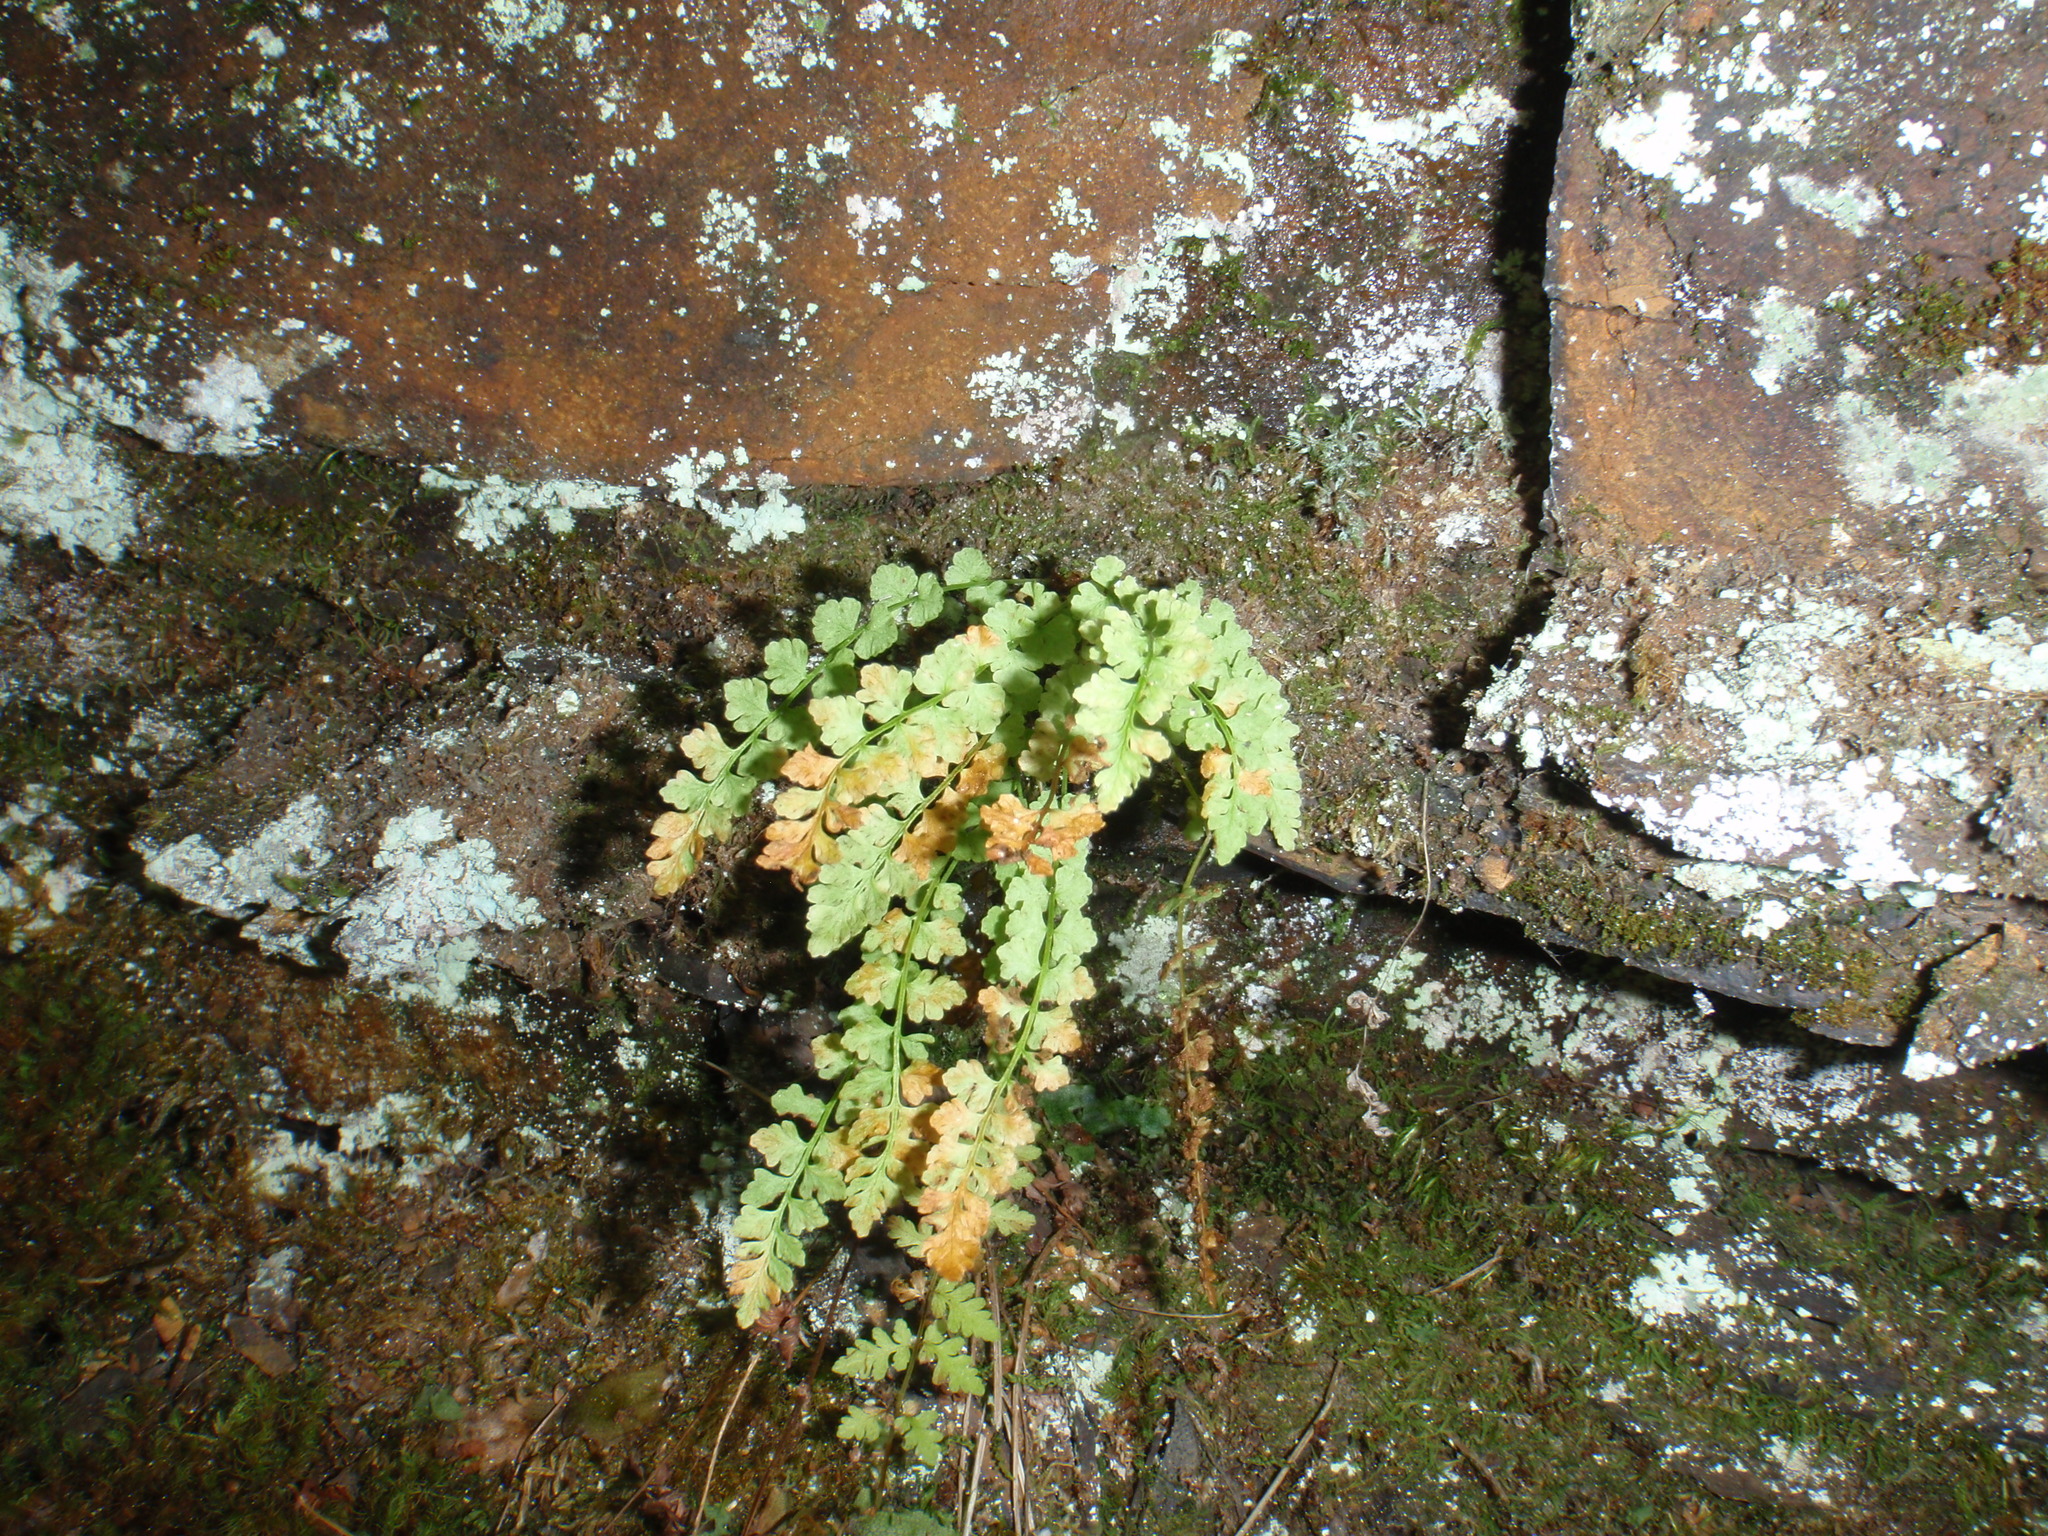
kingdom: Plantae
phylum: Tracheophyta
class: Polypodiopsida
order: Polypodiales
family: Woodsiaceae
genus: Woodsia
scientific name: Woodsia glabella
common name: Smooth woodsia
